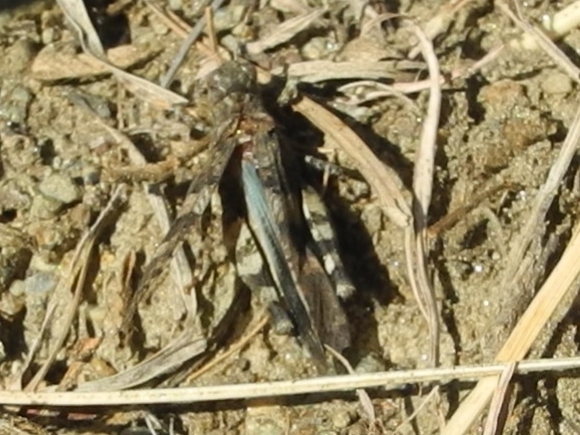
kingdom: Animalia
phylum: Arthropoda
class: Insecta
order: Orthoptera
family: Acrididae
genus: Oedipoda
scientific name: Oedipoda caerulescens
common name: Blue-winged grasshopper
